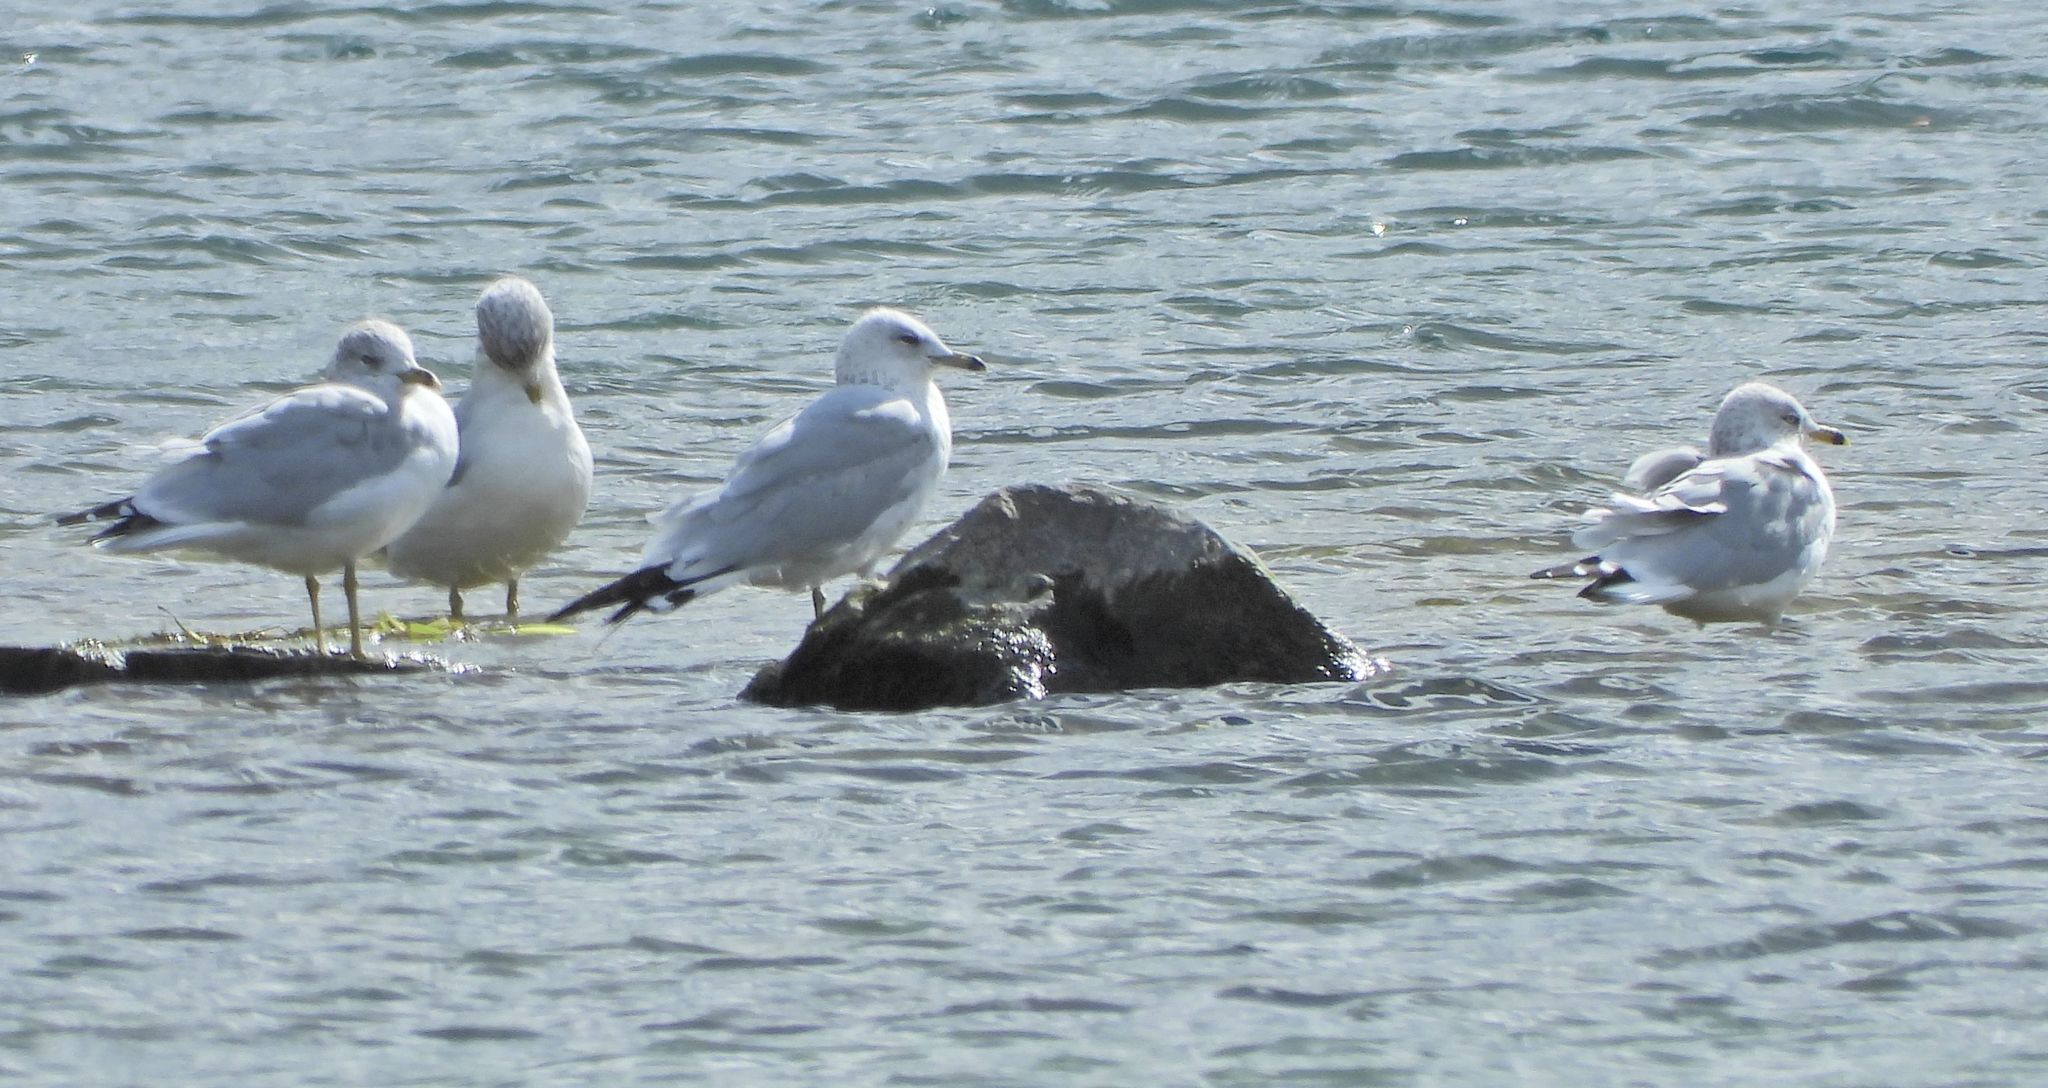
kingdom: Animalia
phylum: Chordata
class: Aves
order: Charadriiformes
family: Laridae
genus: Larus
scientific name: Larus delawarensis
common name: Ring-billed gull
